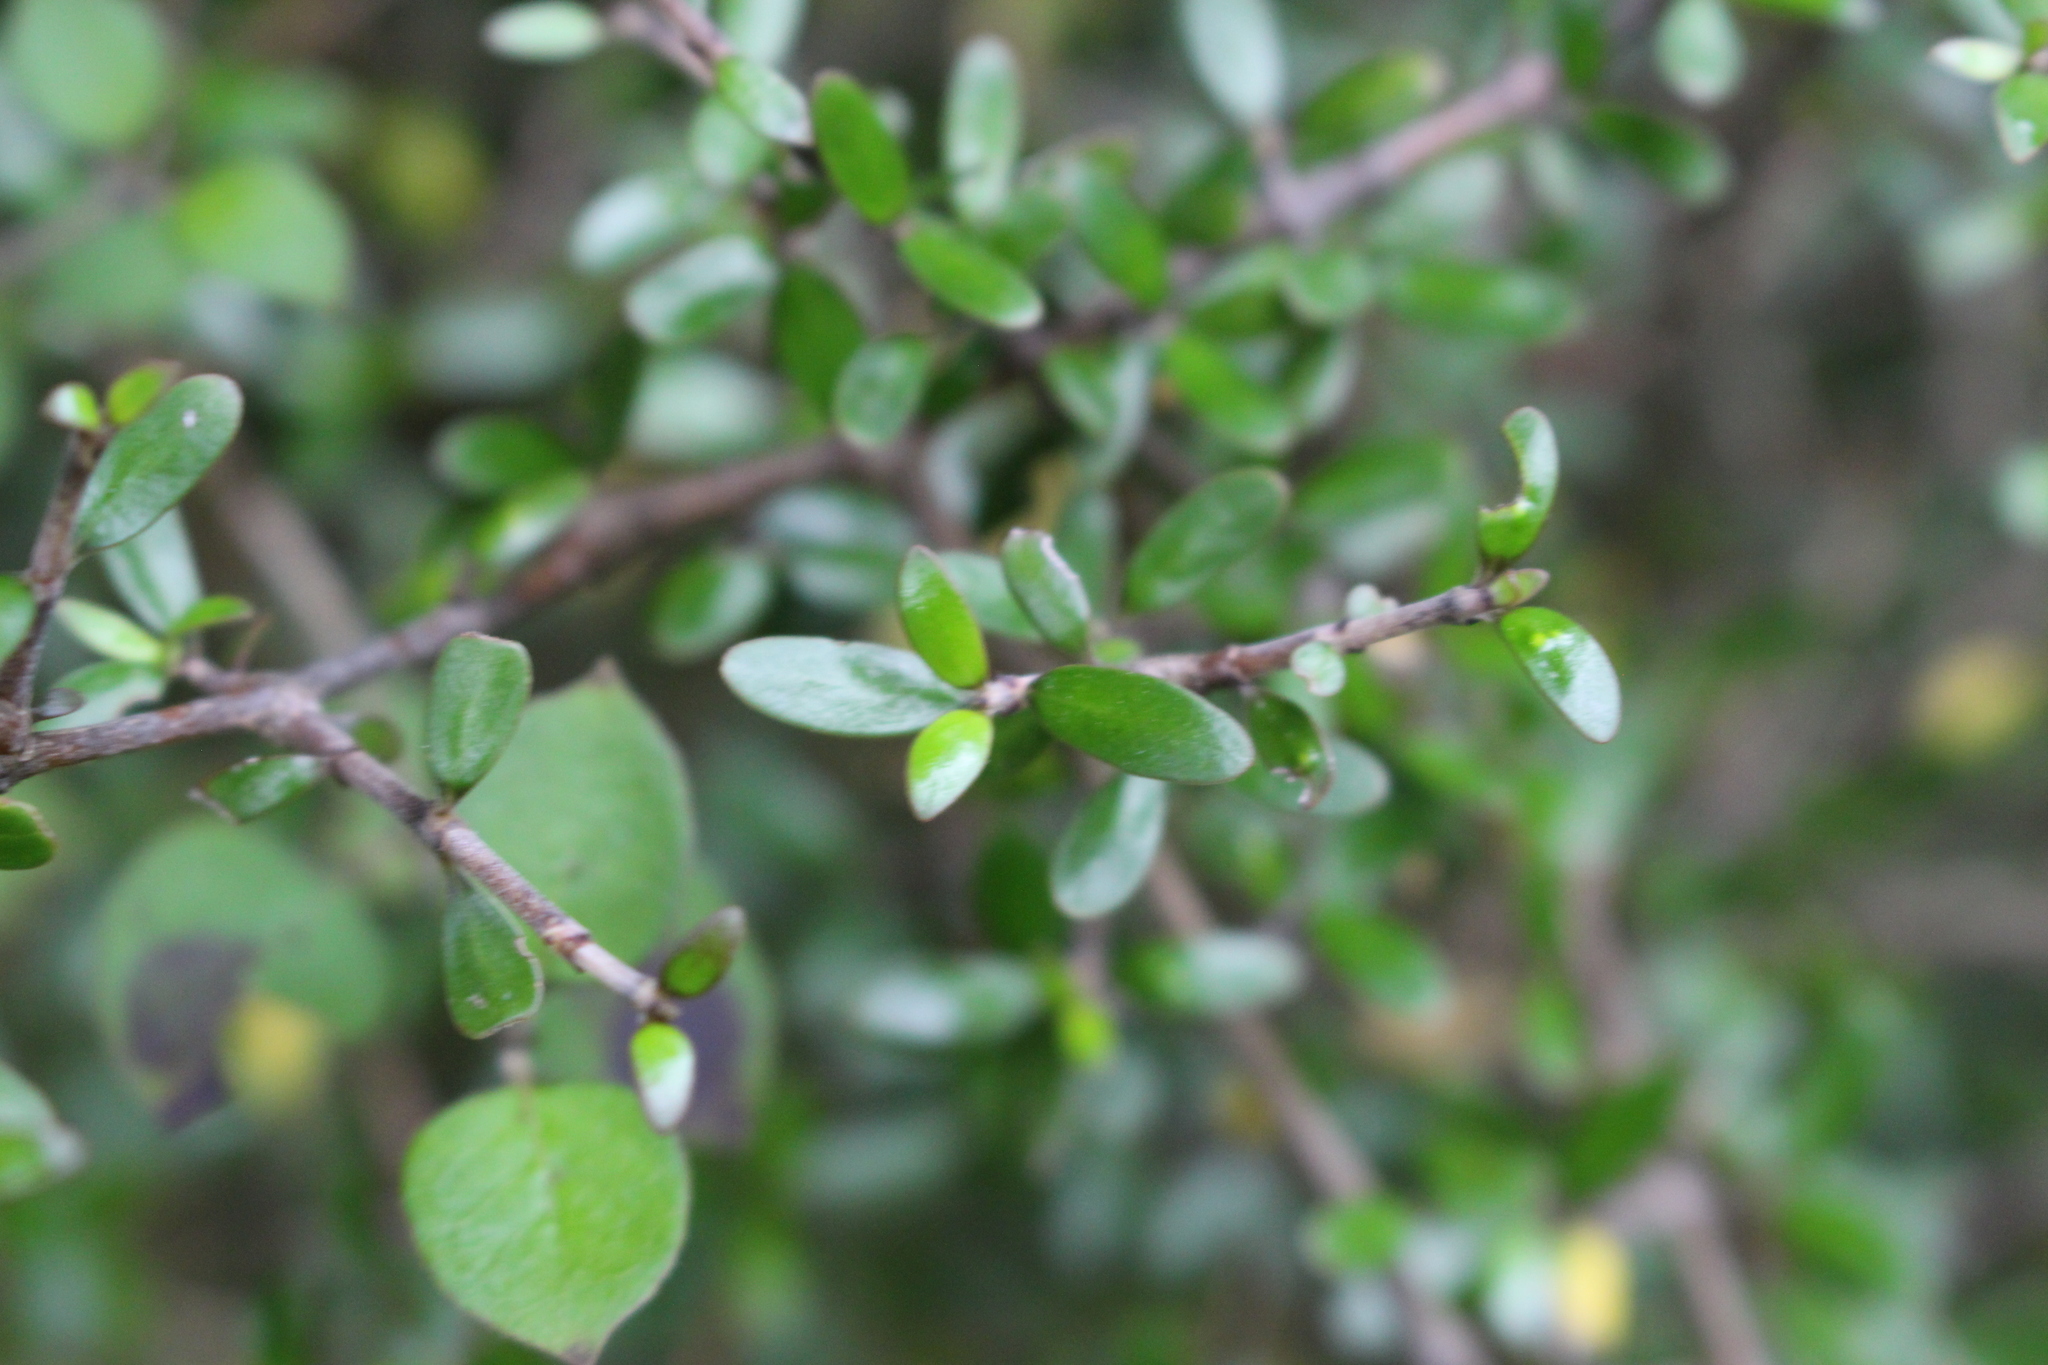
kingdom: Plantae
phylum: Tracheophyta
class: Magnoliopsida
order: Gentianales
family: Rubiaceae
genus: Coprosma
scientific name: Coprosma propinqua
